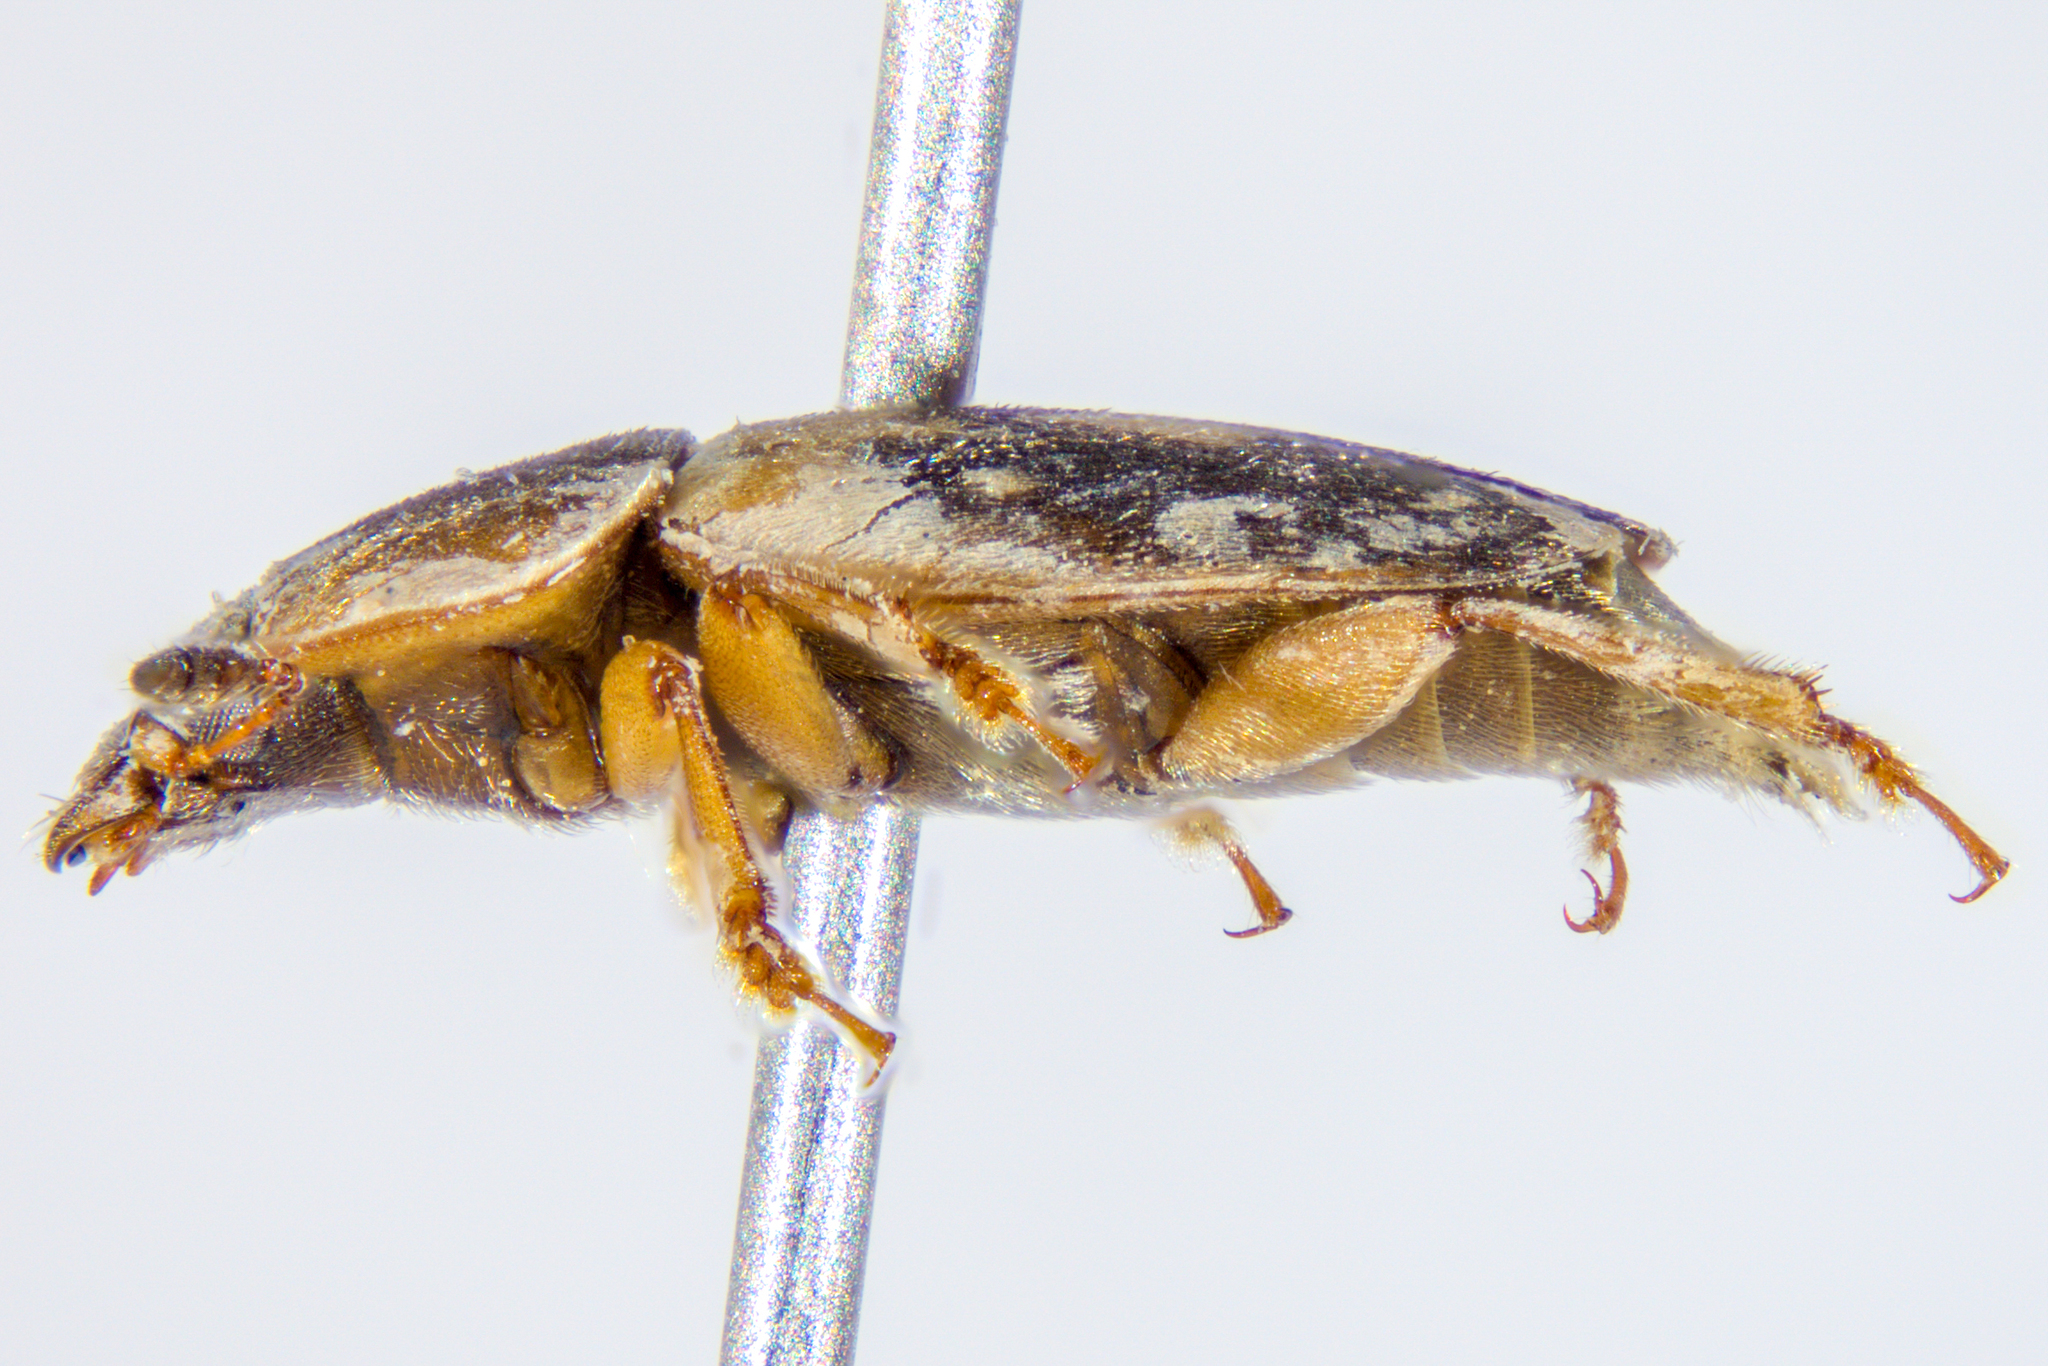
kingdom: Animalia
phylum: Arthropoda
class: Insecta
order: Coleoptera
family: Nitidulidae
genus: Nitidula
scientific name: Nitidula flavomaculata
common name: Sap beetle
